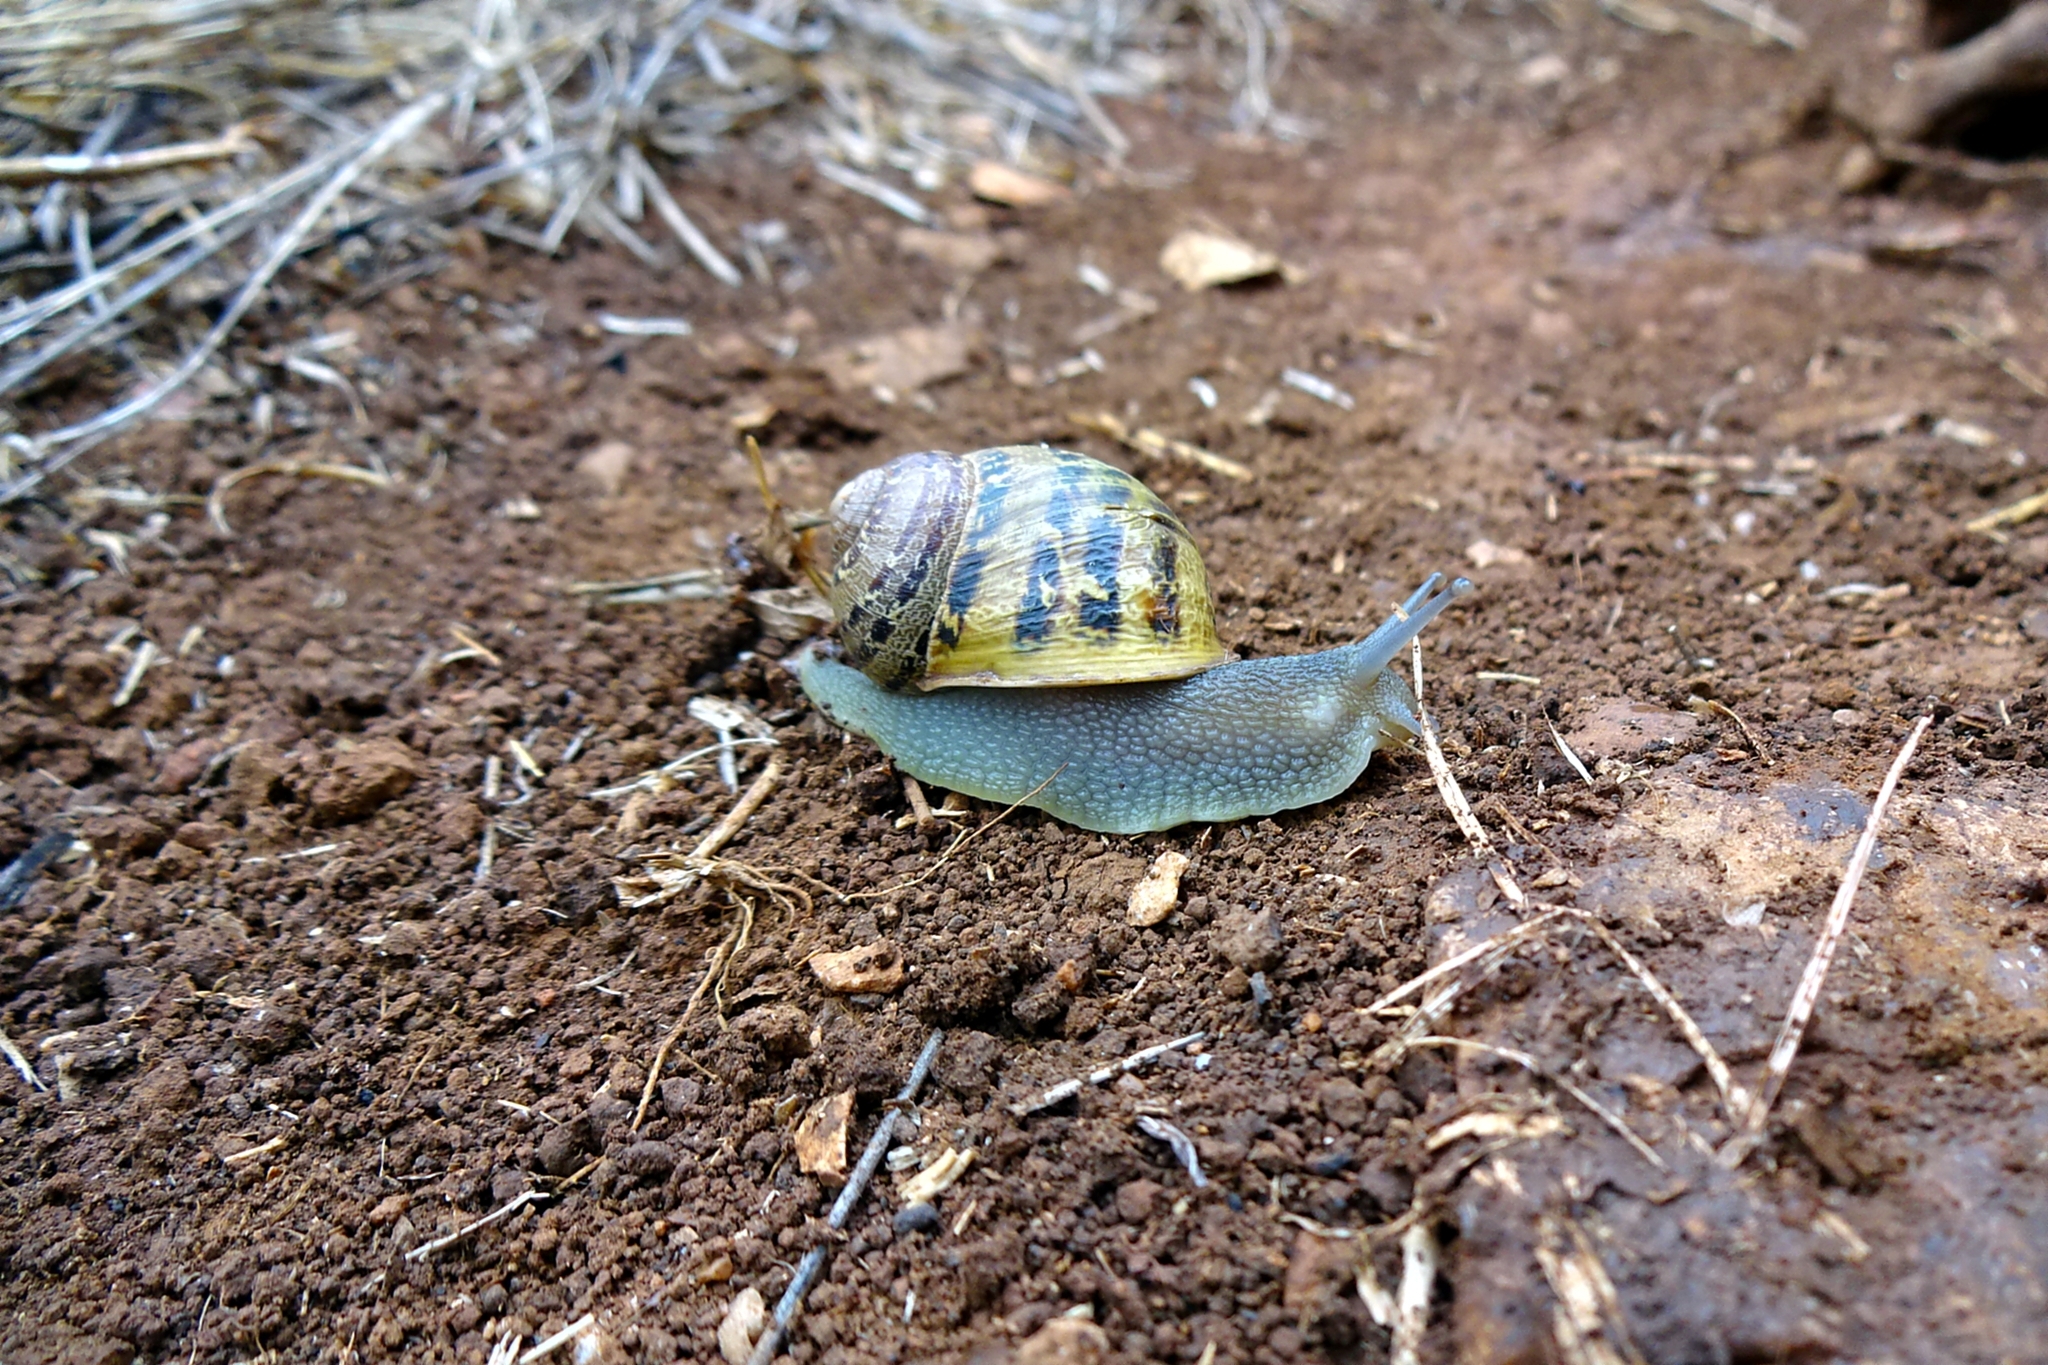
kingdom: Animalia
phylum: Mollusca
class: Gastropoda
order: Stylommatophora
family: Helicidae
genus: Cornu
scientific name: Cornu aspersum
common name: Brown garden snail
